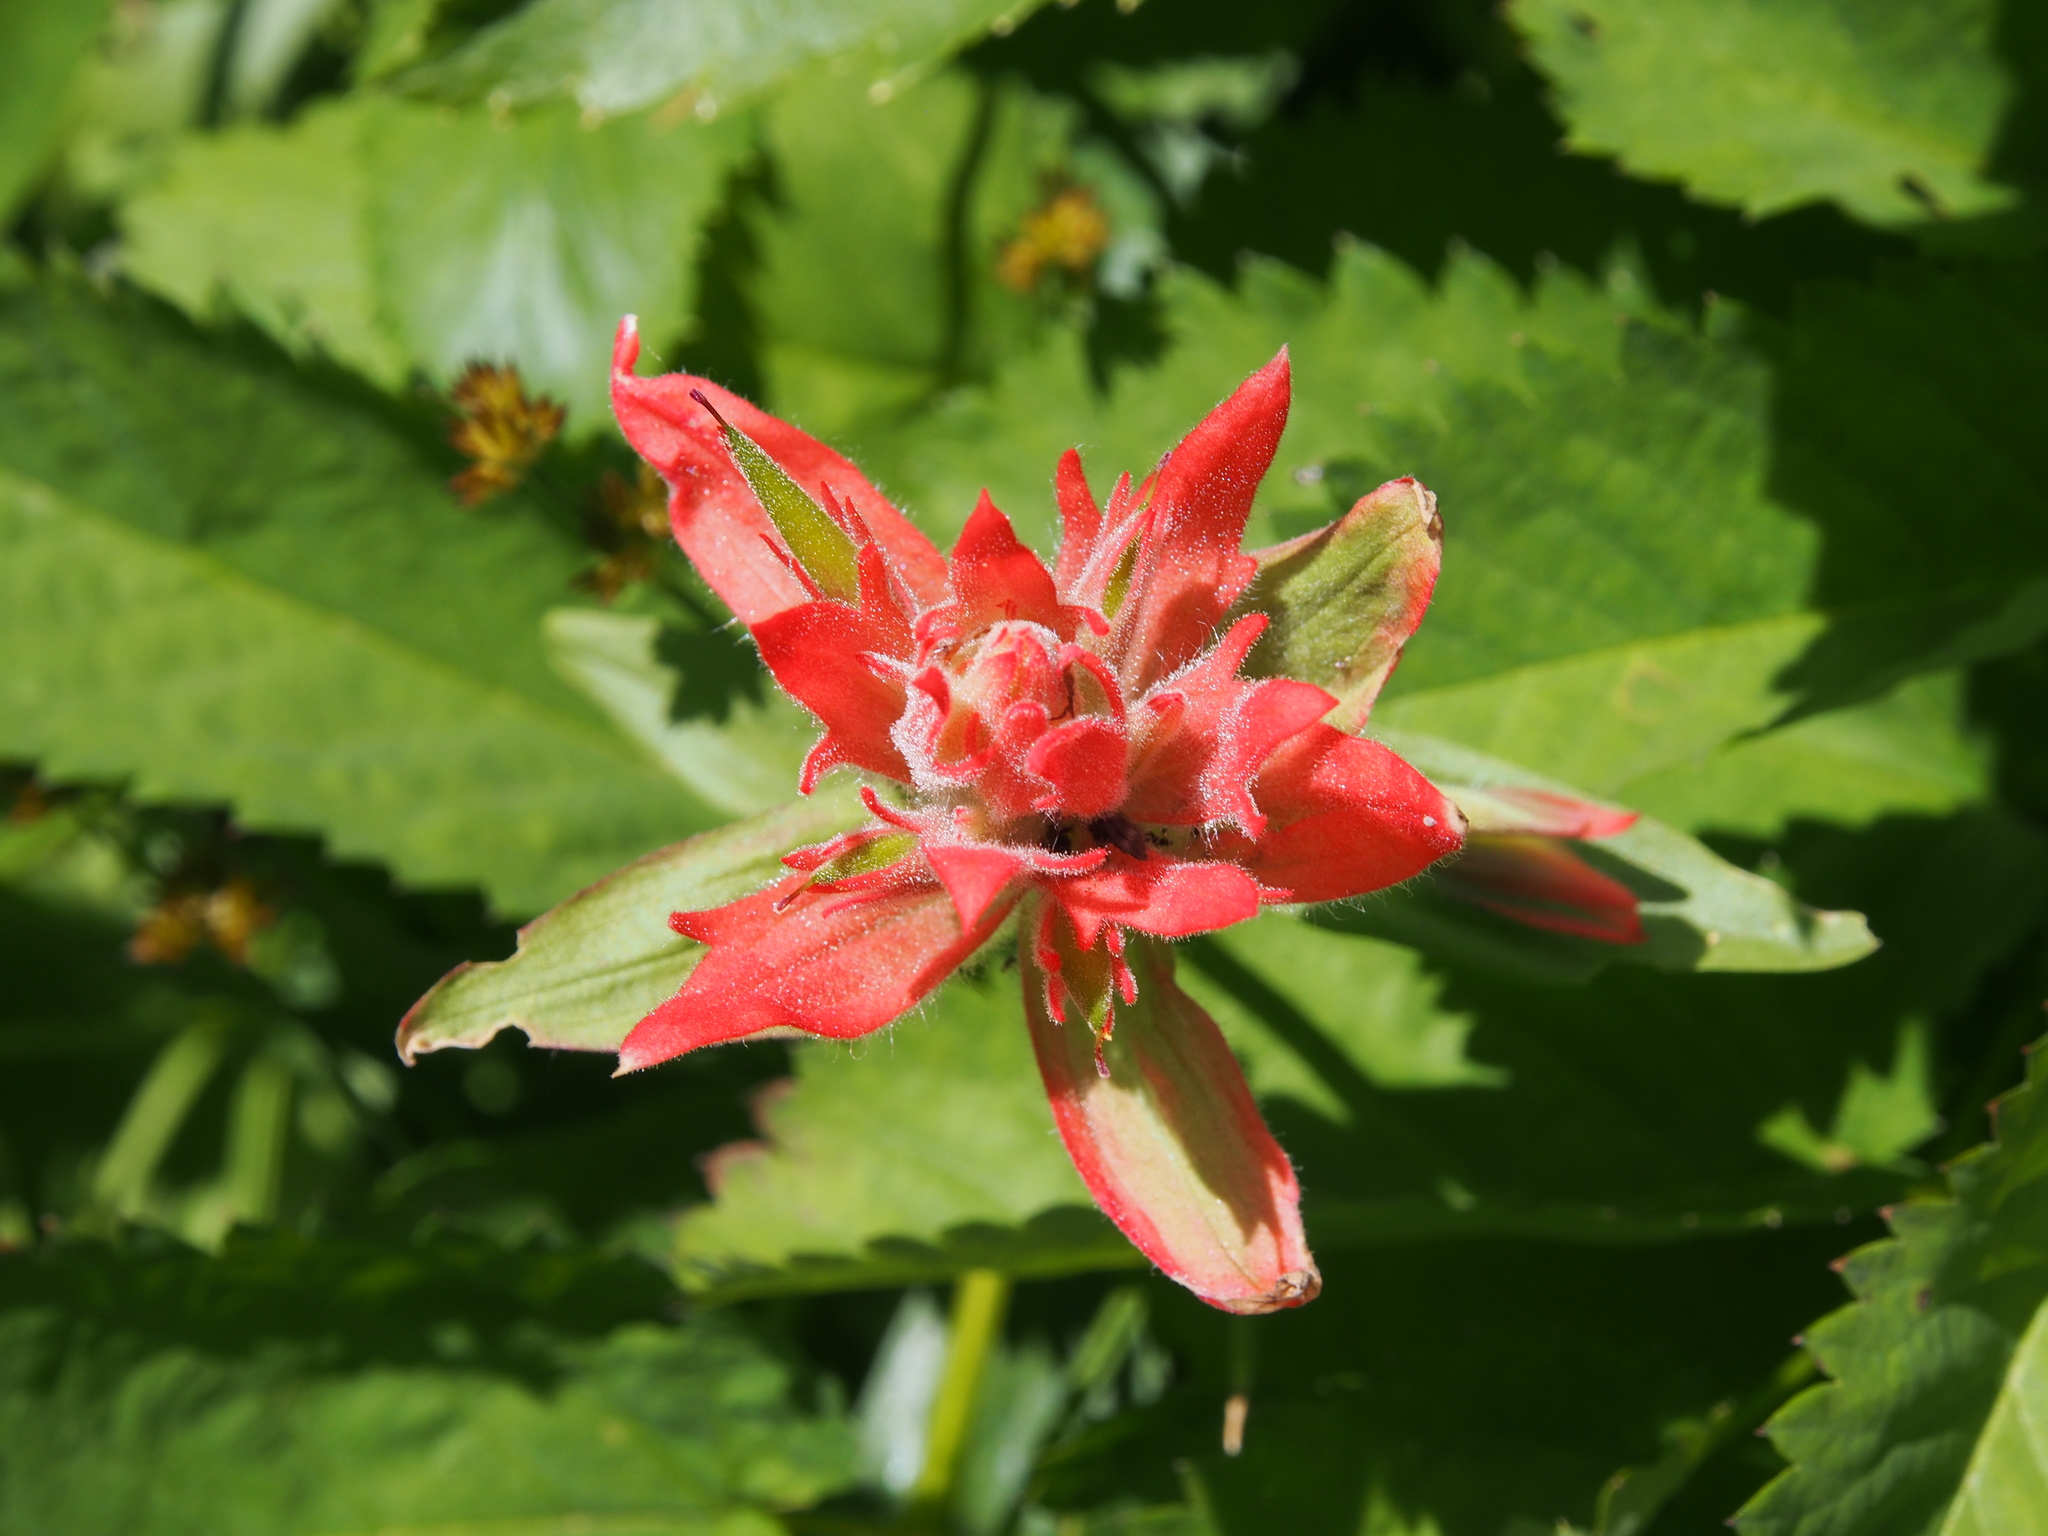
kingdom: Plantae
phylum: Tracheophyta
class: Magnoliopsida
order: Lamiales
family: Orobanchaceae
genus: Castilleja
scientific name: Castilleja miniata
